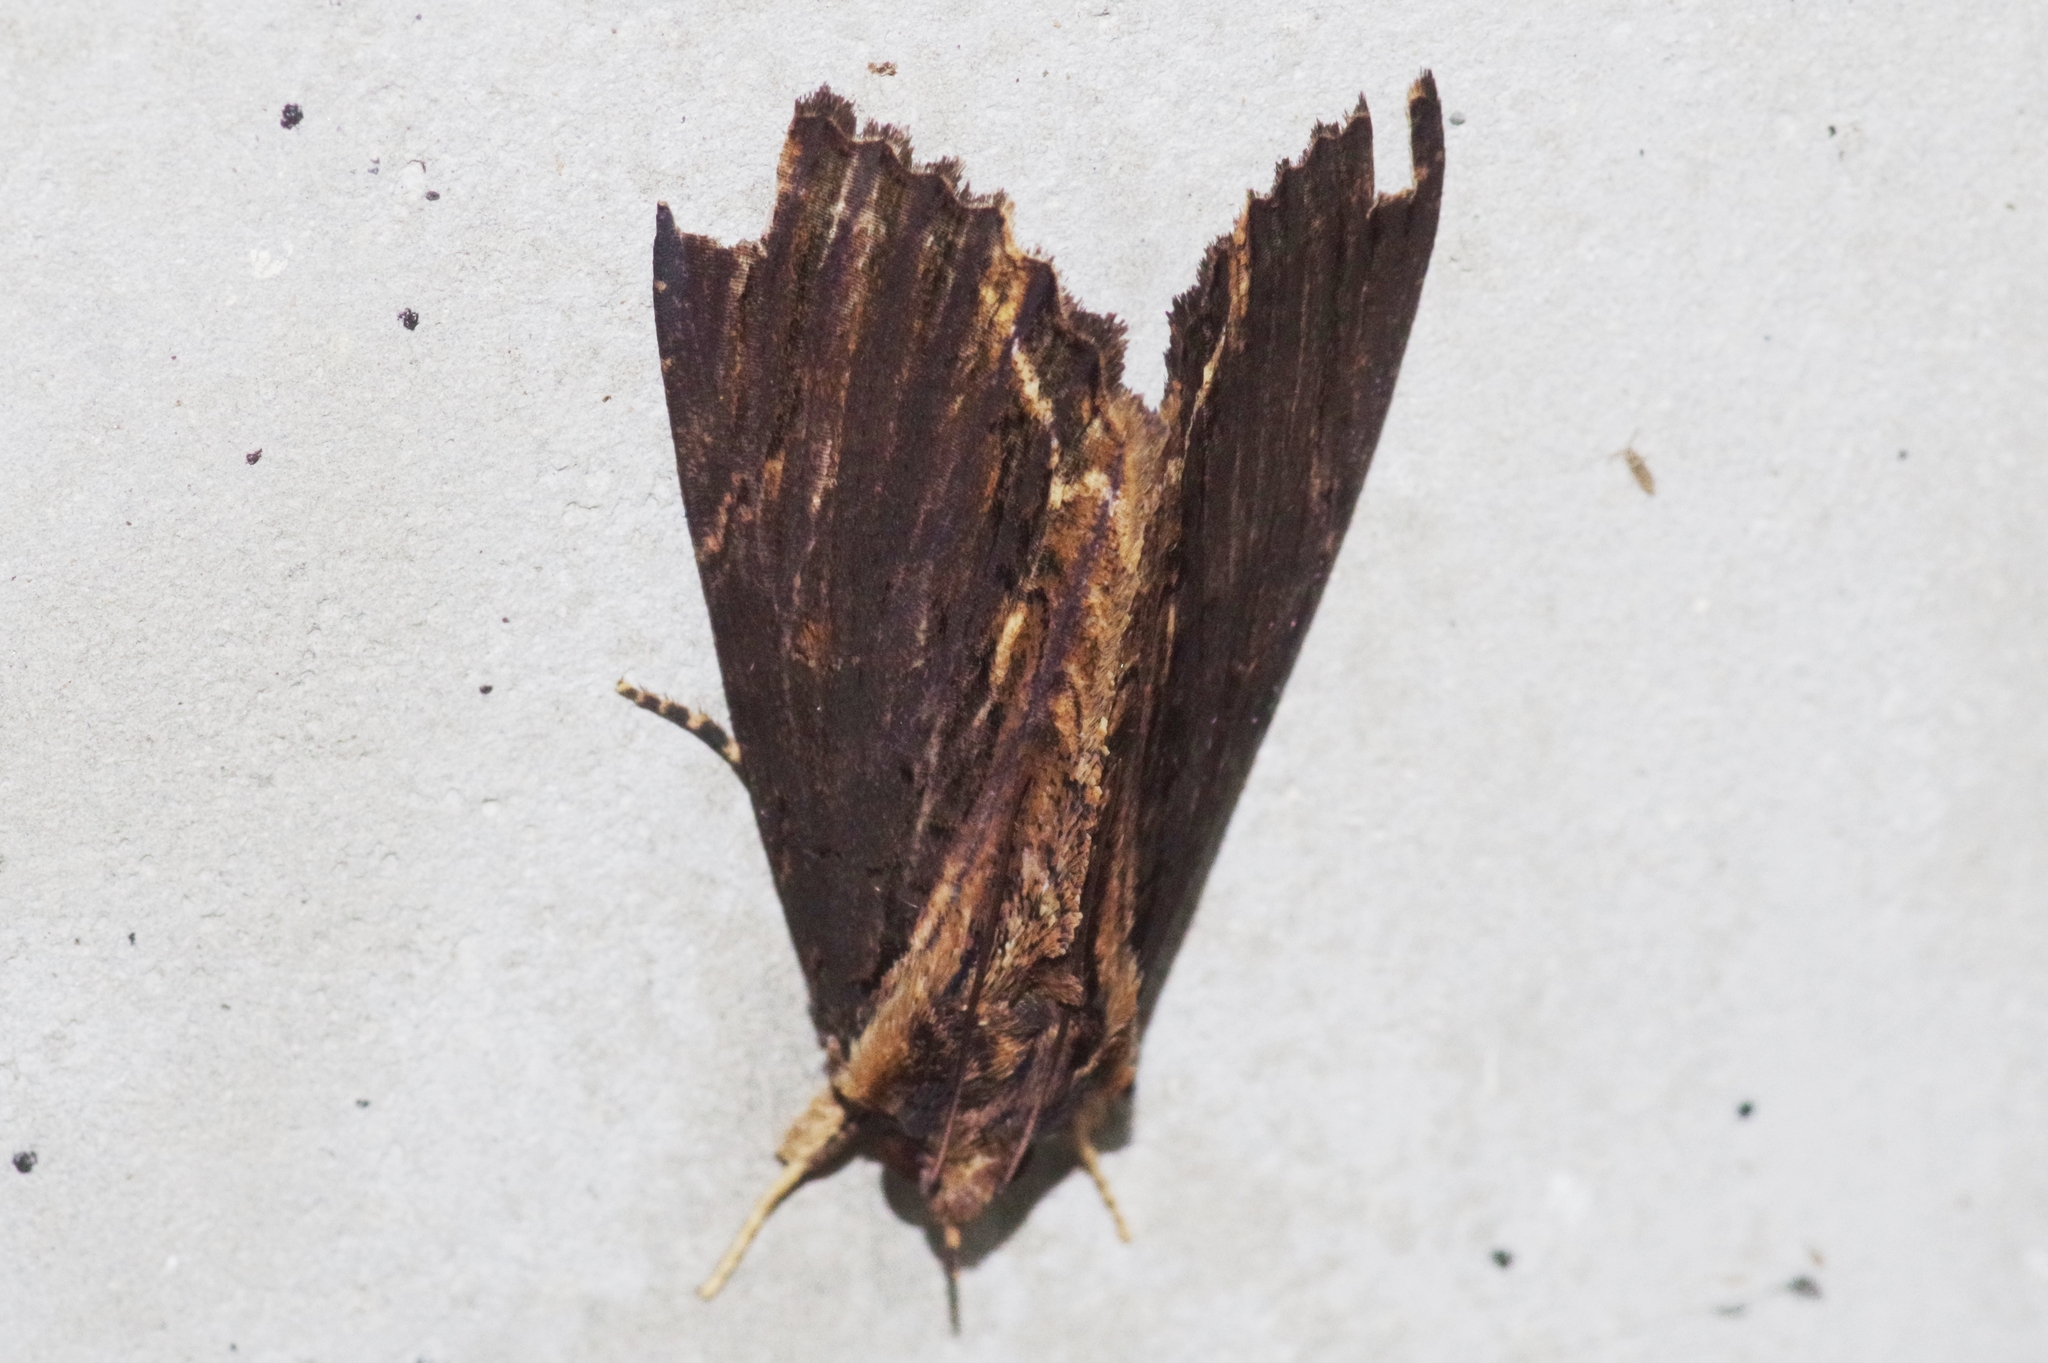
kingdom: Animalia
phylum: Arthropoda
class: Insecta
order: Lepidoptera
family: Erebidae
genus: Ercheia
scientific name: Ercheia umbrosa
